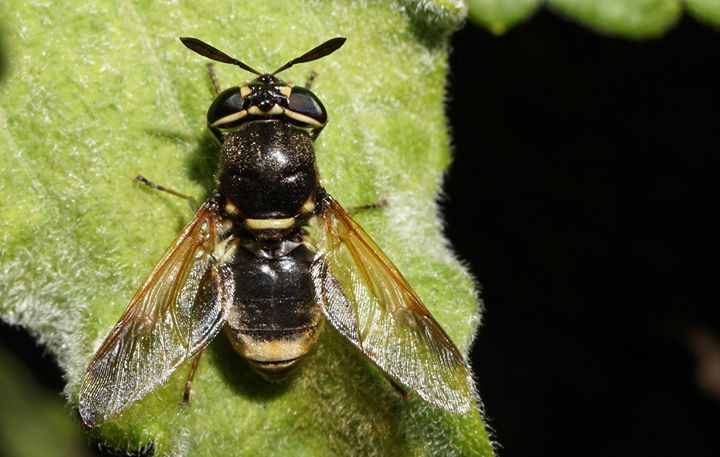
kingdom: Animalia
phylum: Arthropoda
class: Insecta
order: Diptera
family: Stratiomyidae
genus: Hoplitimyia
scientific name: Hoplitimyia mutabilis
